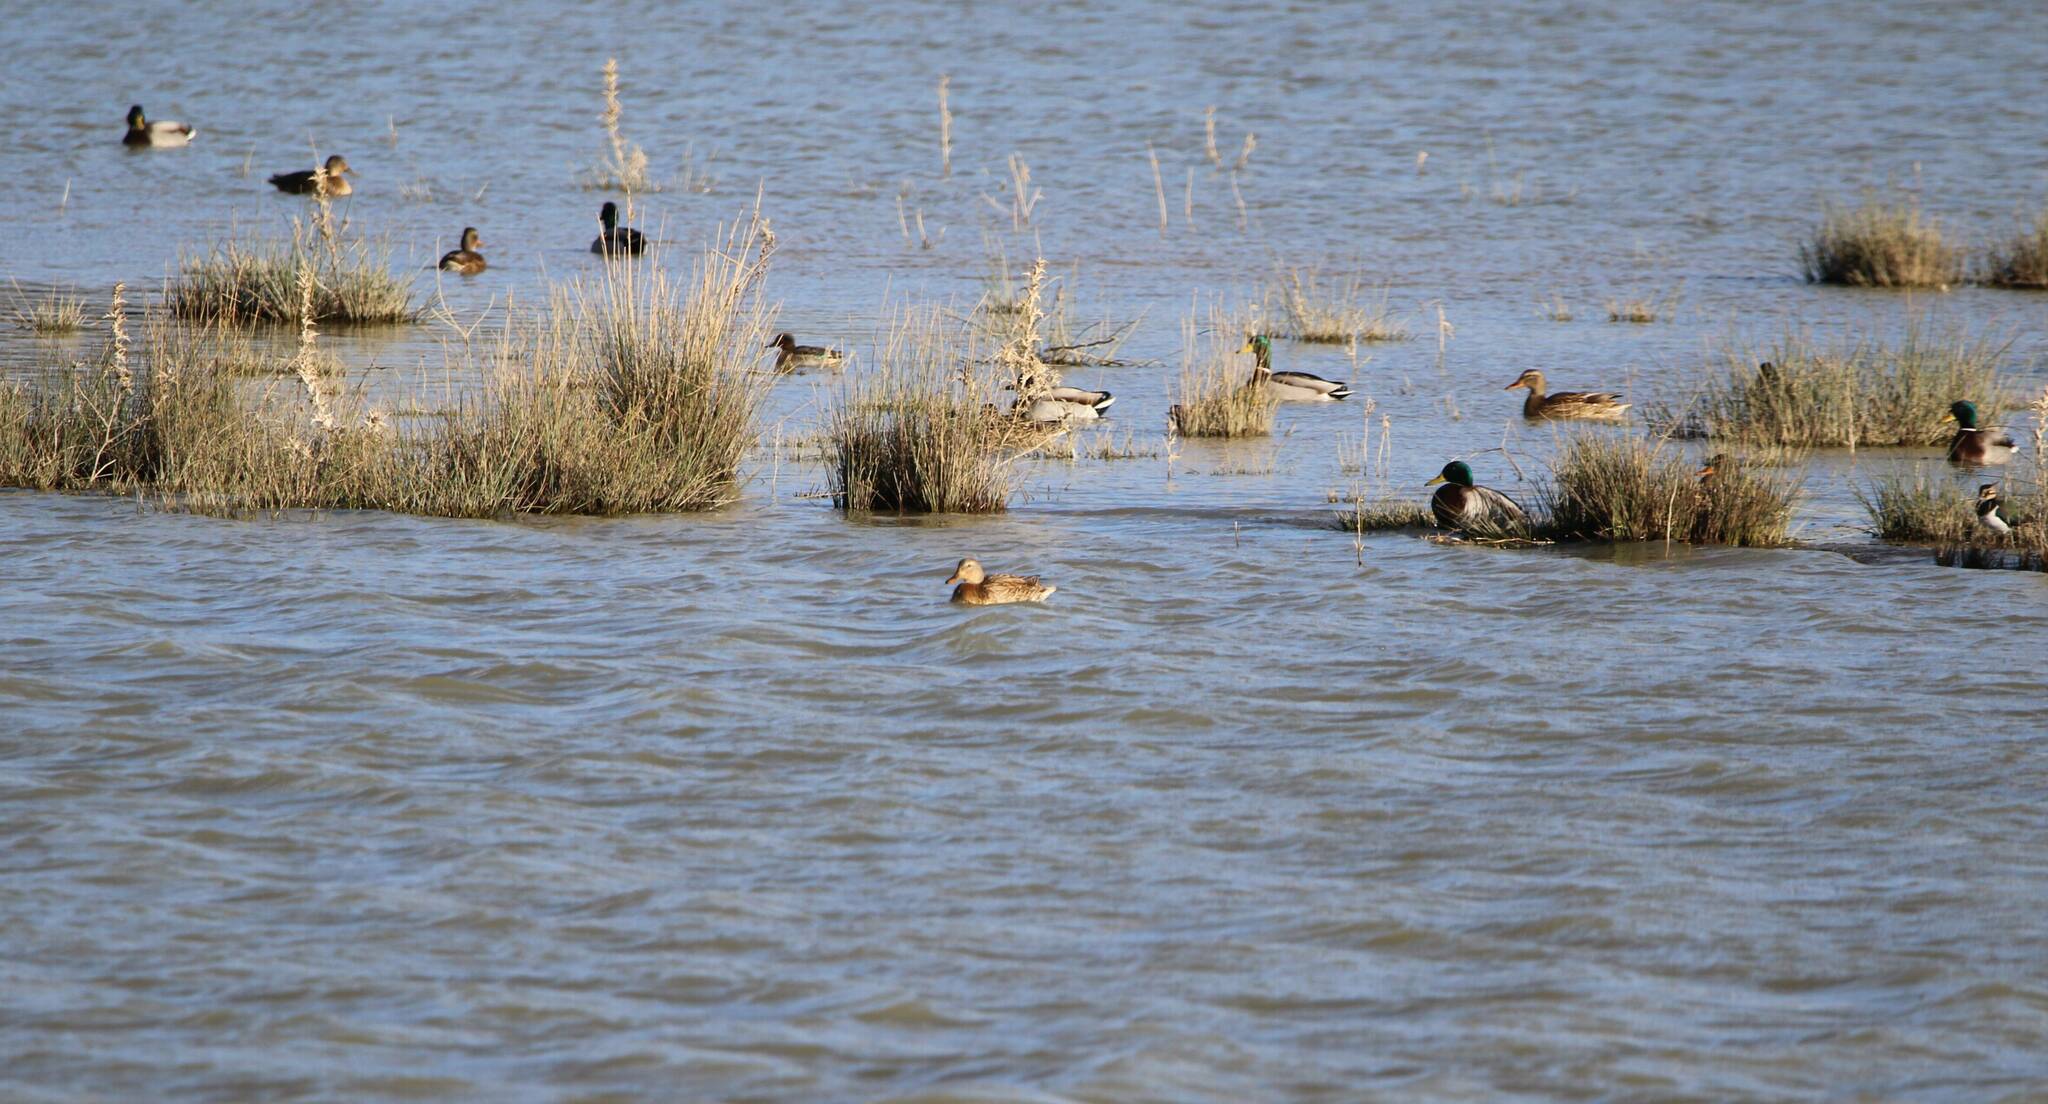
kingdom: Animalia
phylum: Chordata
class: Aves
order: Anseriformes
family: Anatidae
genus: Anas
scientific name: Anas platyrhynchos
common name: Mallard
